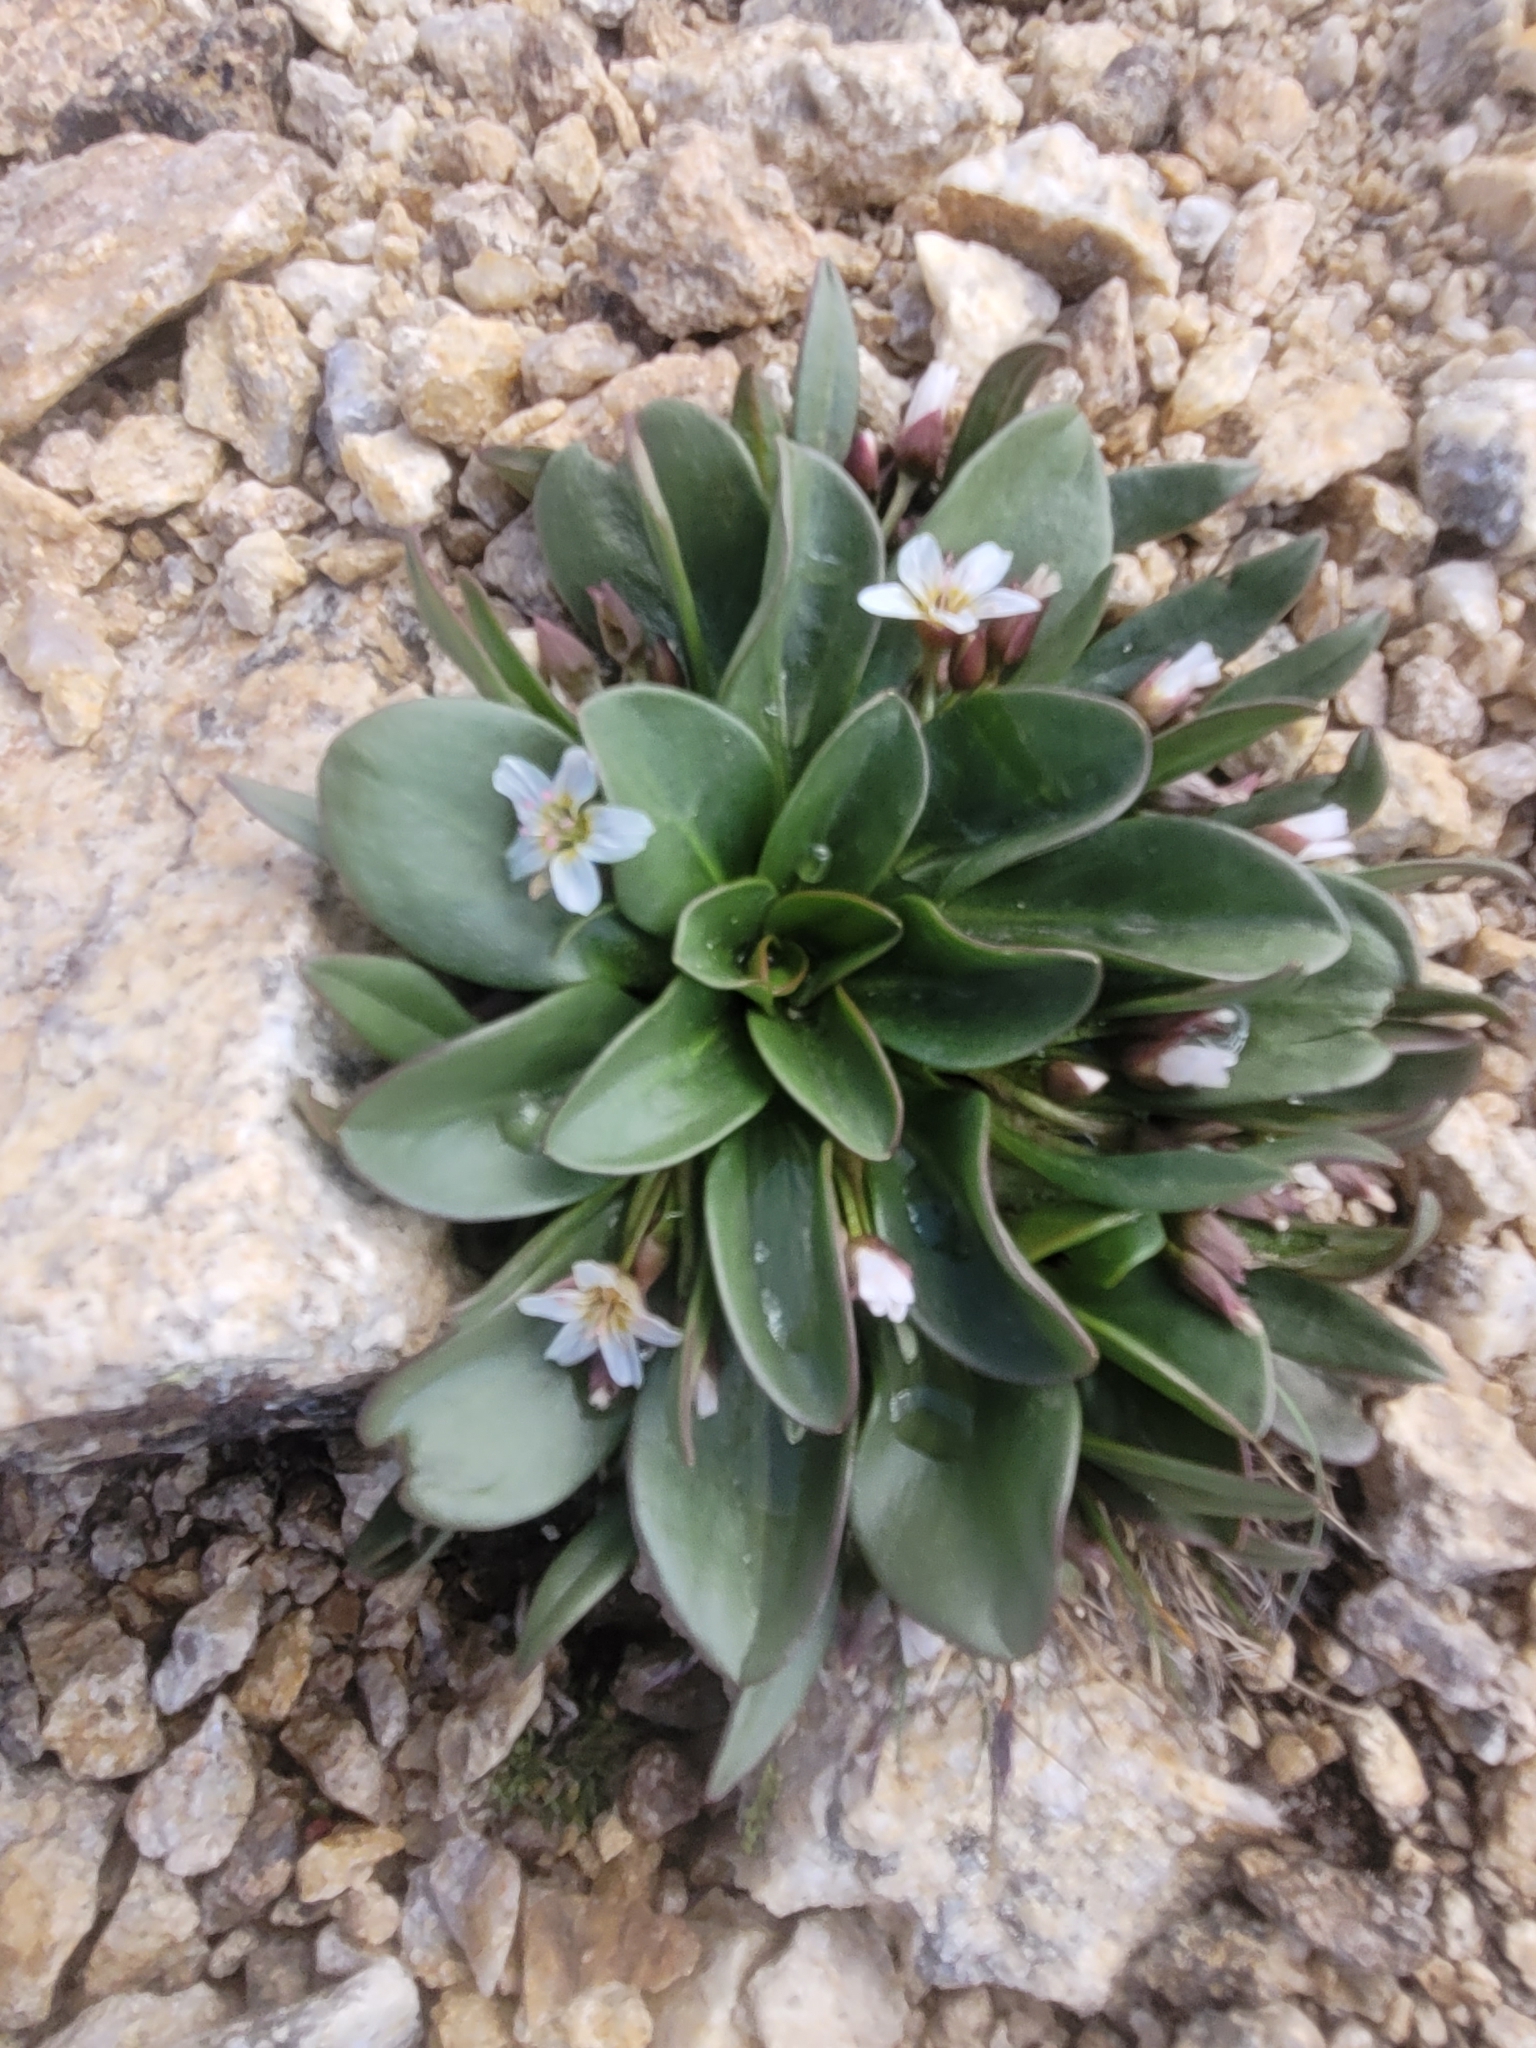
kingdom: Plantae
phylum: Tracheophyta
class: Magnoliopsida
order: Caryophyllales
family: Montiaceae
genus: Claytonia
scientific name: Claytonia megarhiza
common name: Alpine spring beauty
